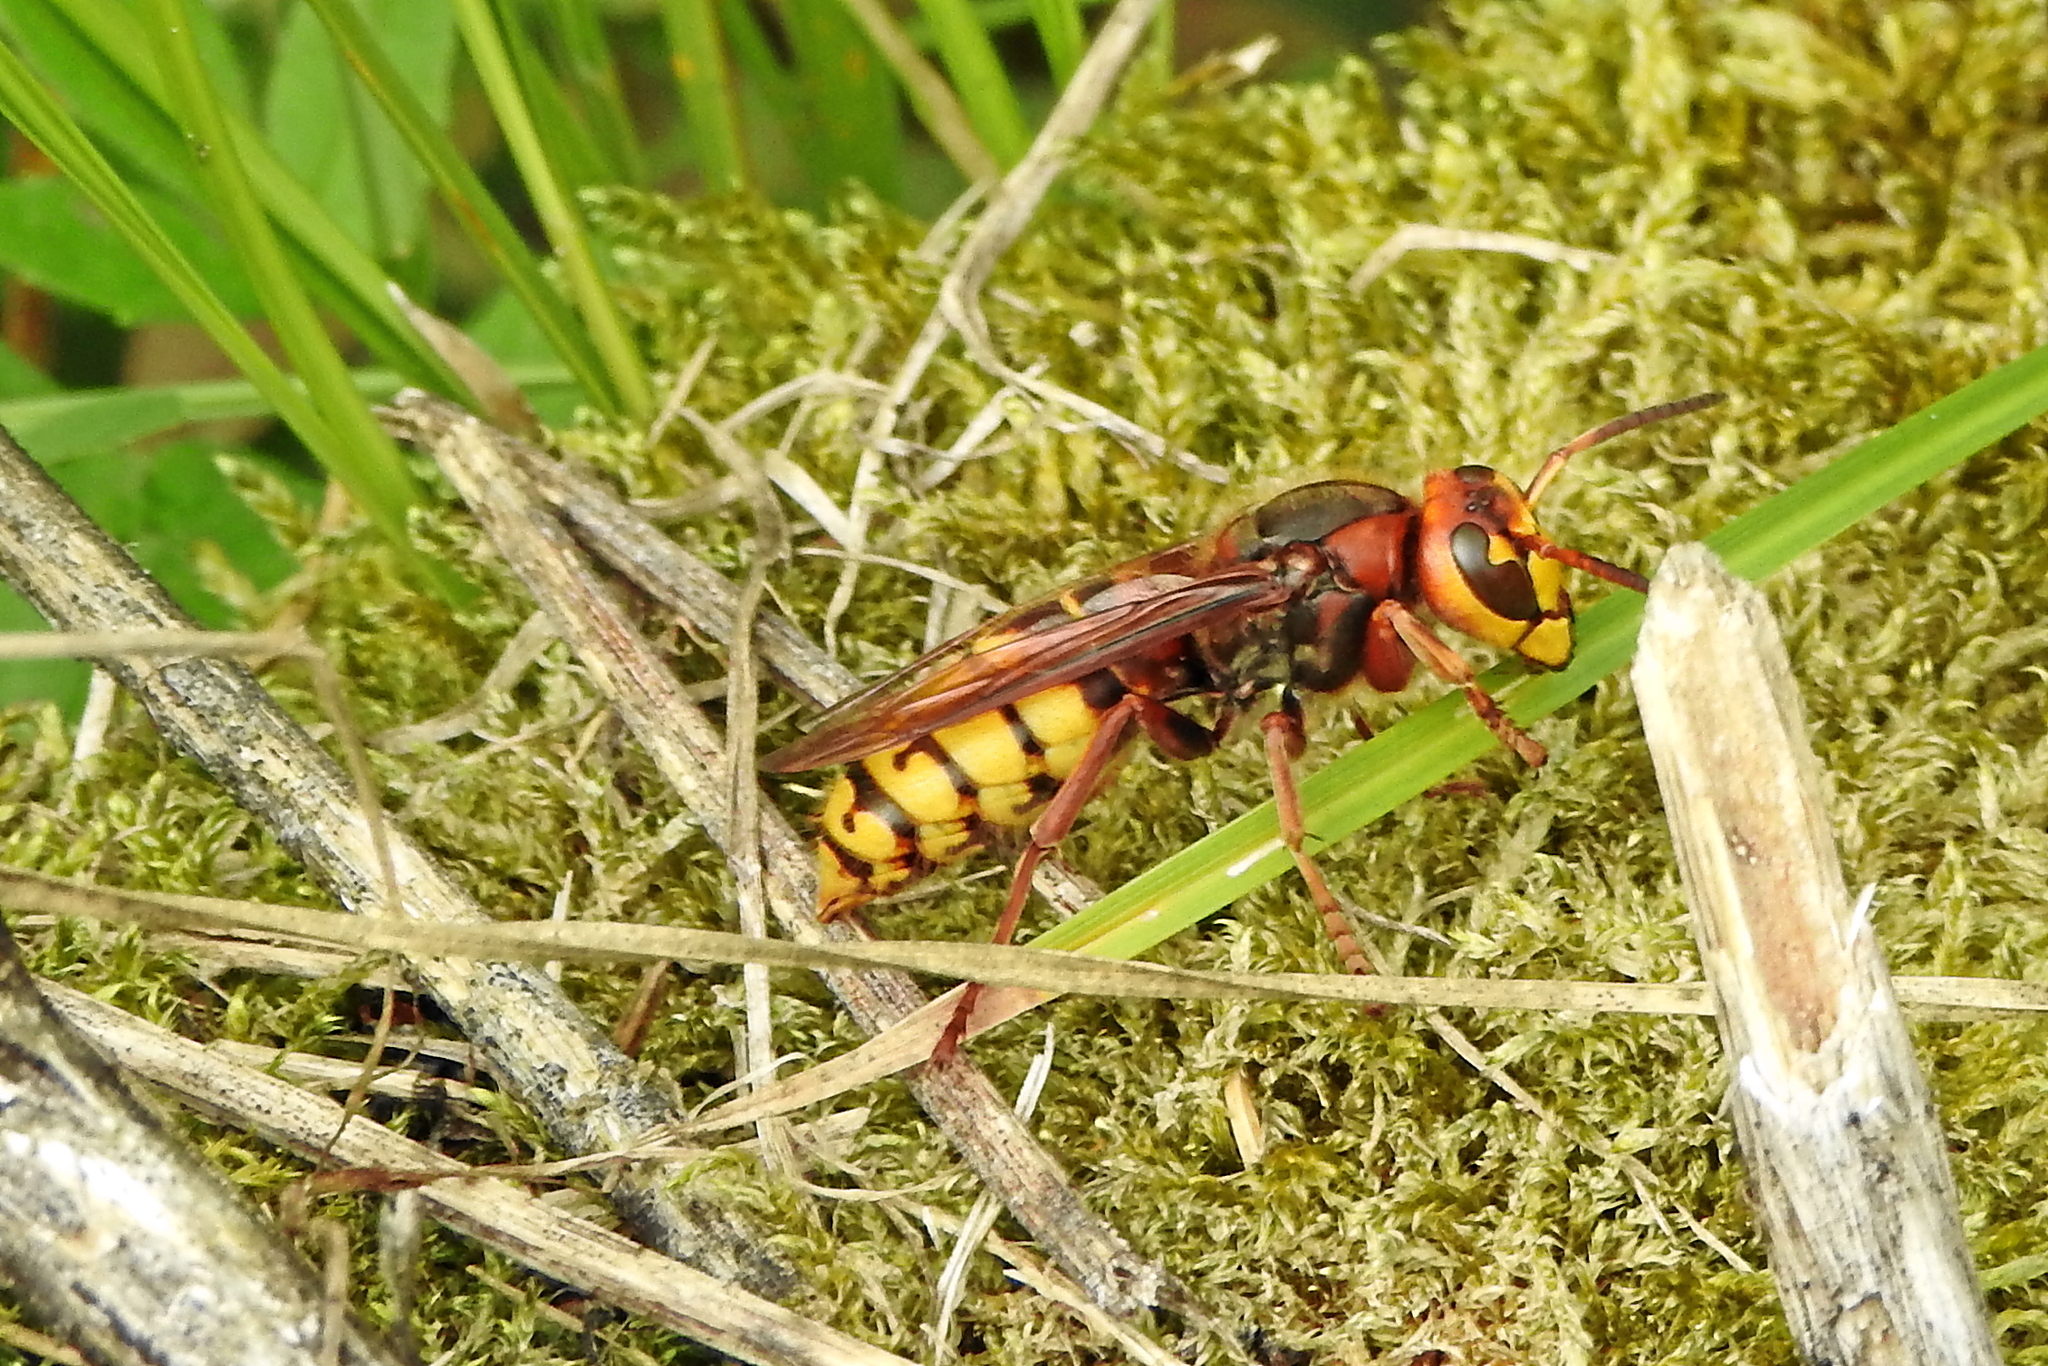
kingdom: Animalia
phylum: Arthropoda
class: Insecta
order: Hymenoptera
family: Vespidae
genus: Vespa
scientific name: Vespa crabro
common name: Hornet
